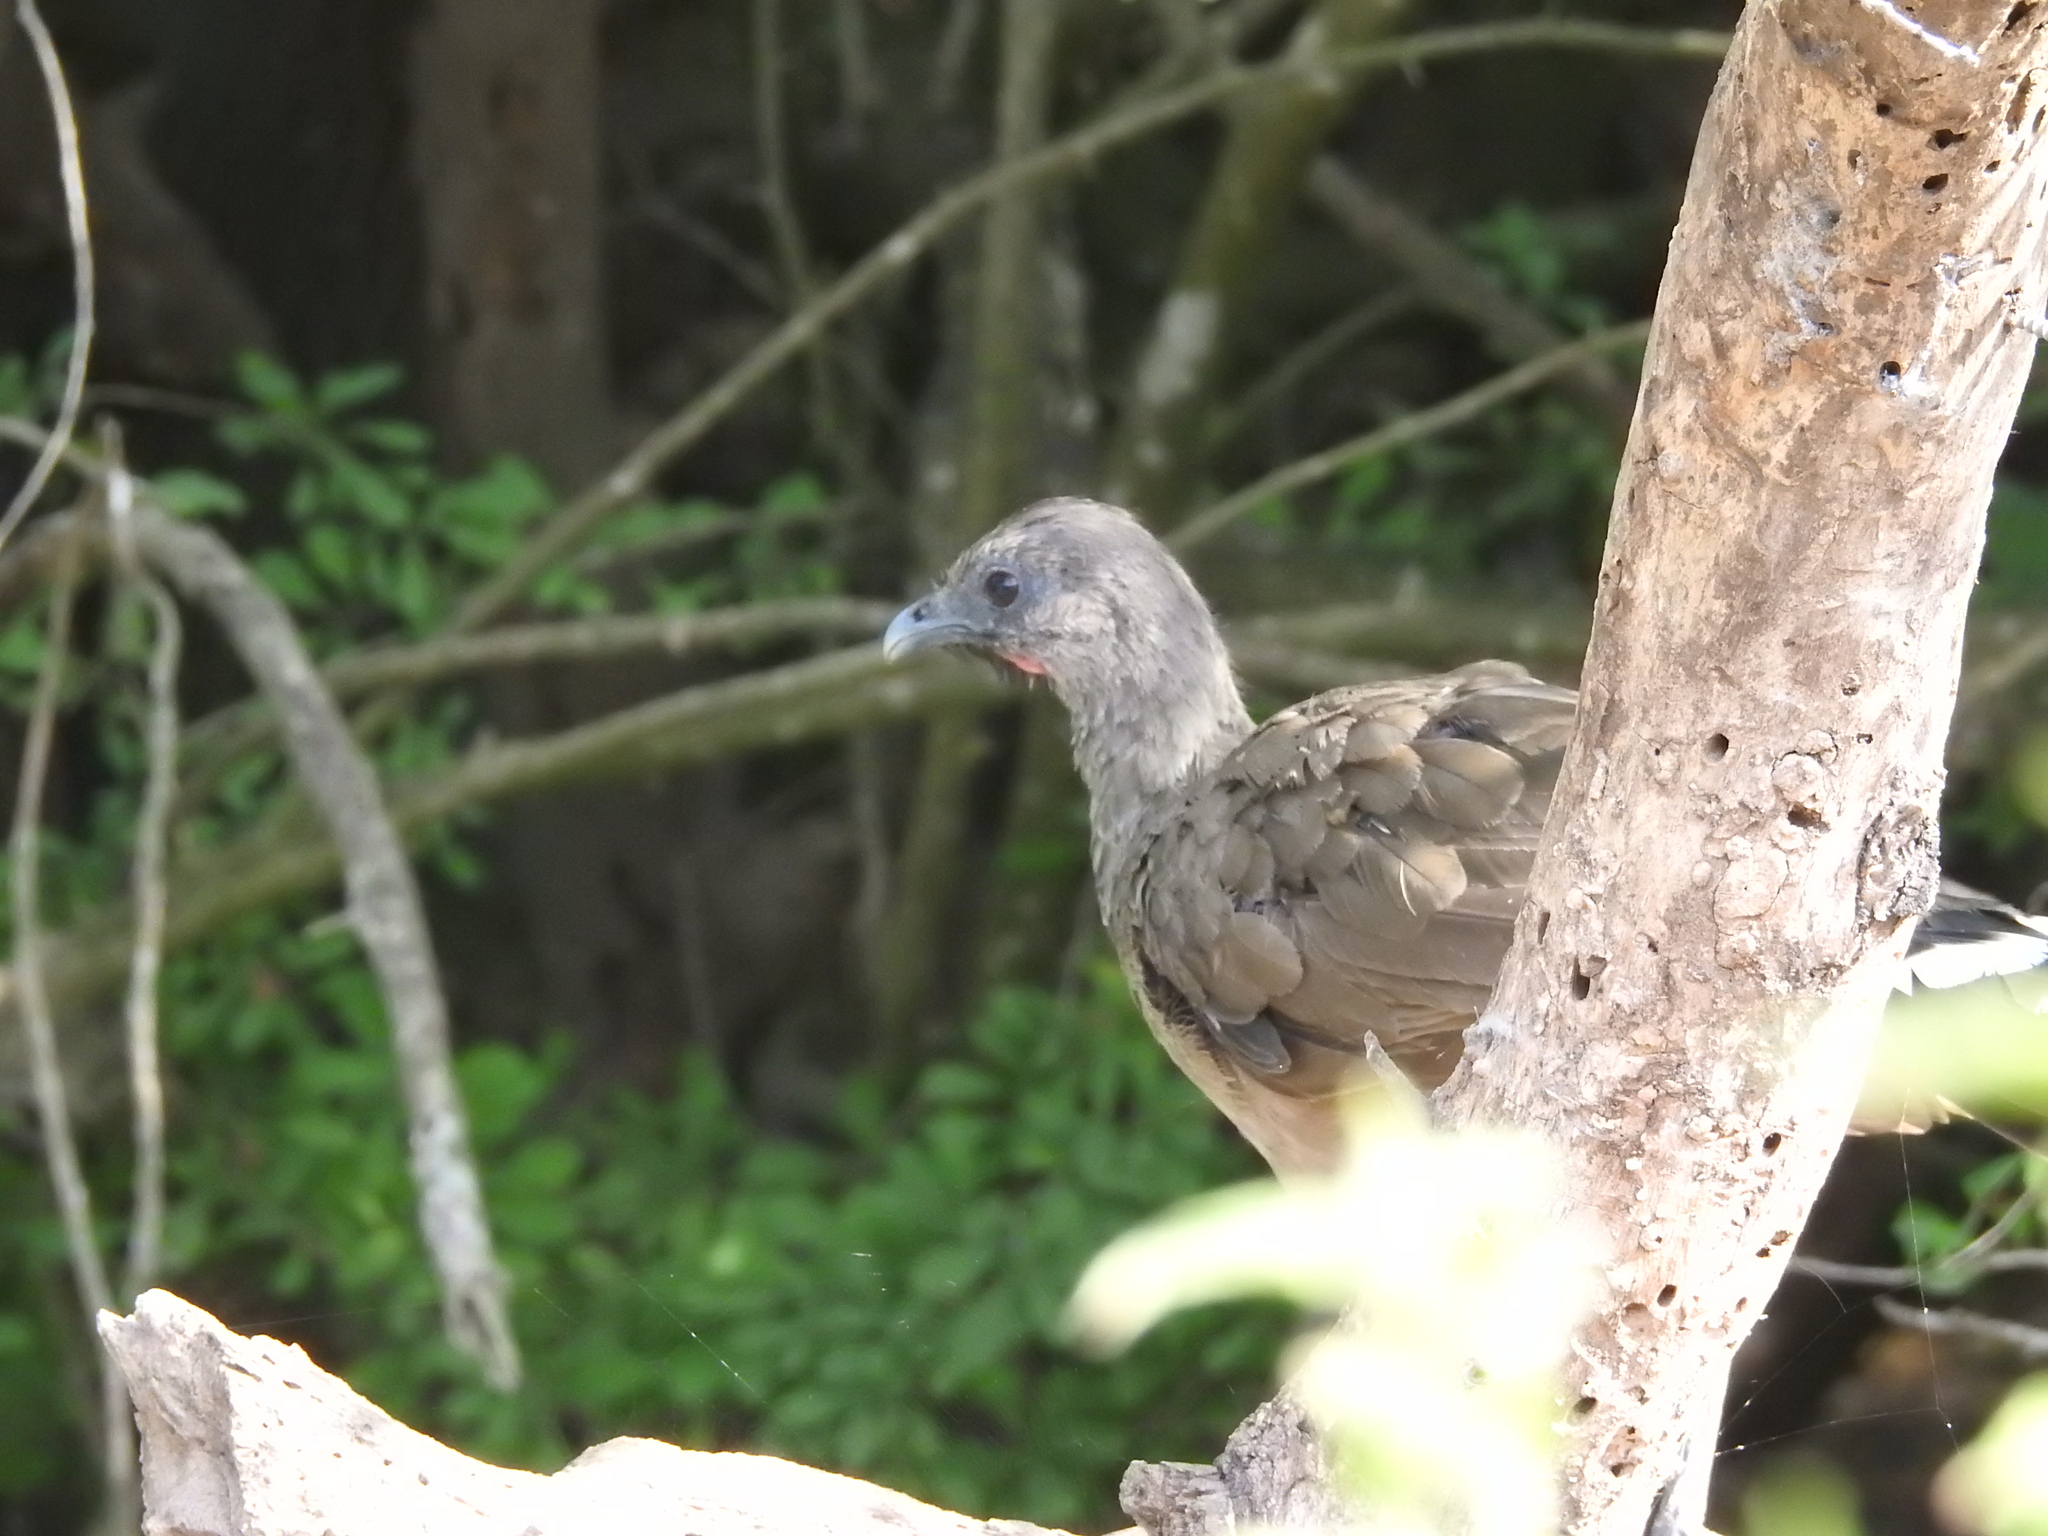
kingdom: Animalia
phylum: Chordata
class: Aves
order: Galliformes
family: Cracidae
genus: Ortalis
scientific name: Ortalis vetula
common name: Plain chachalaca
